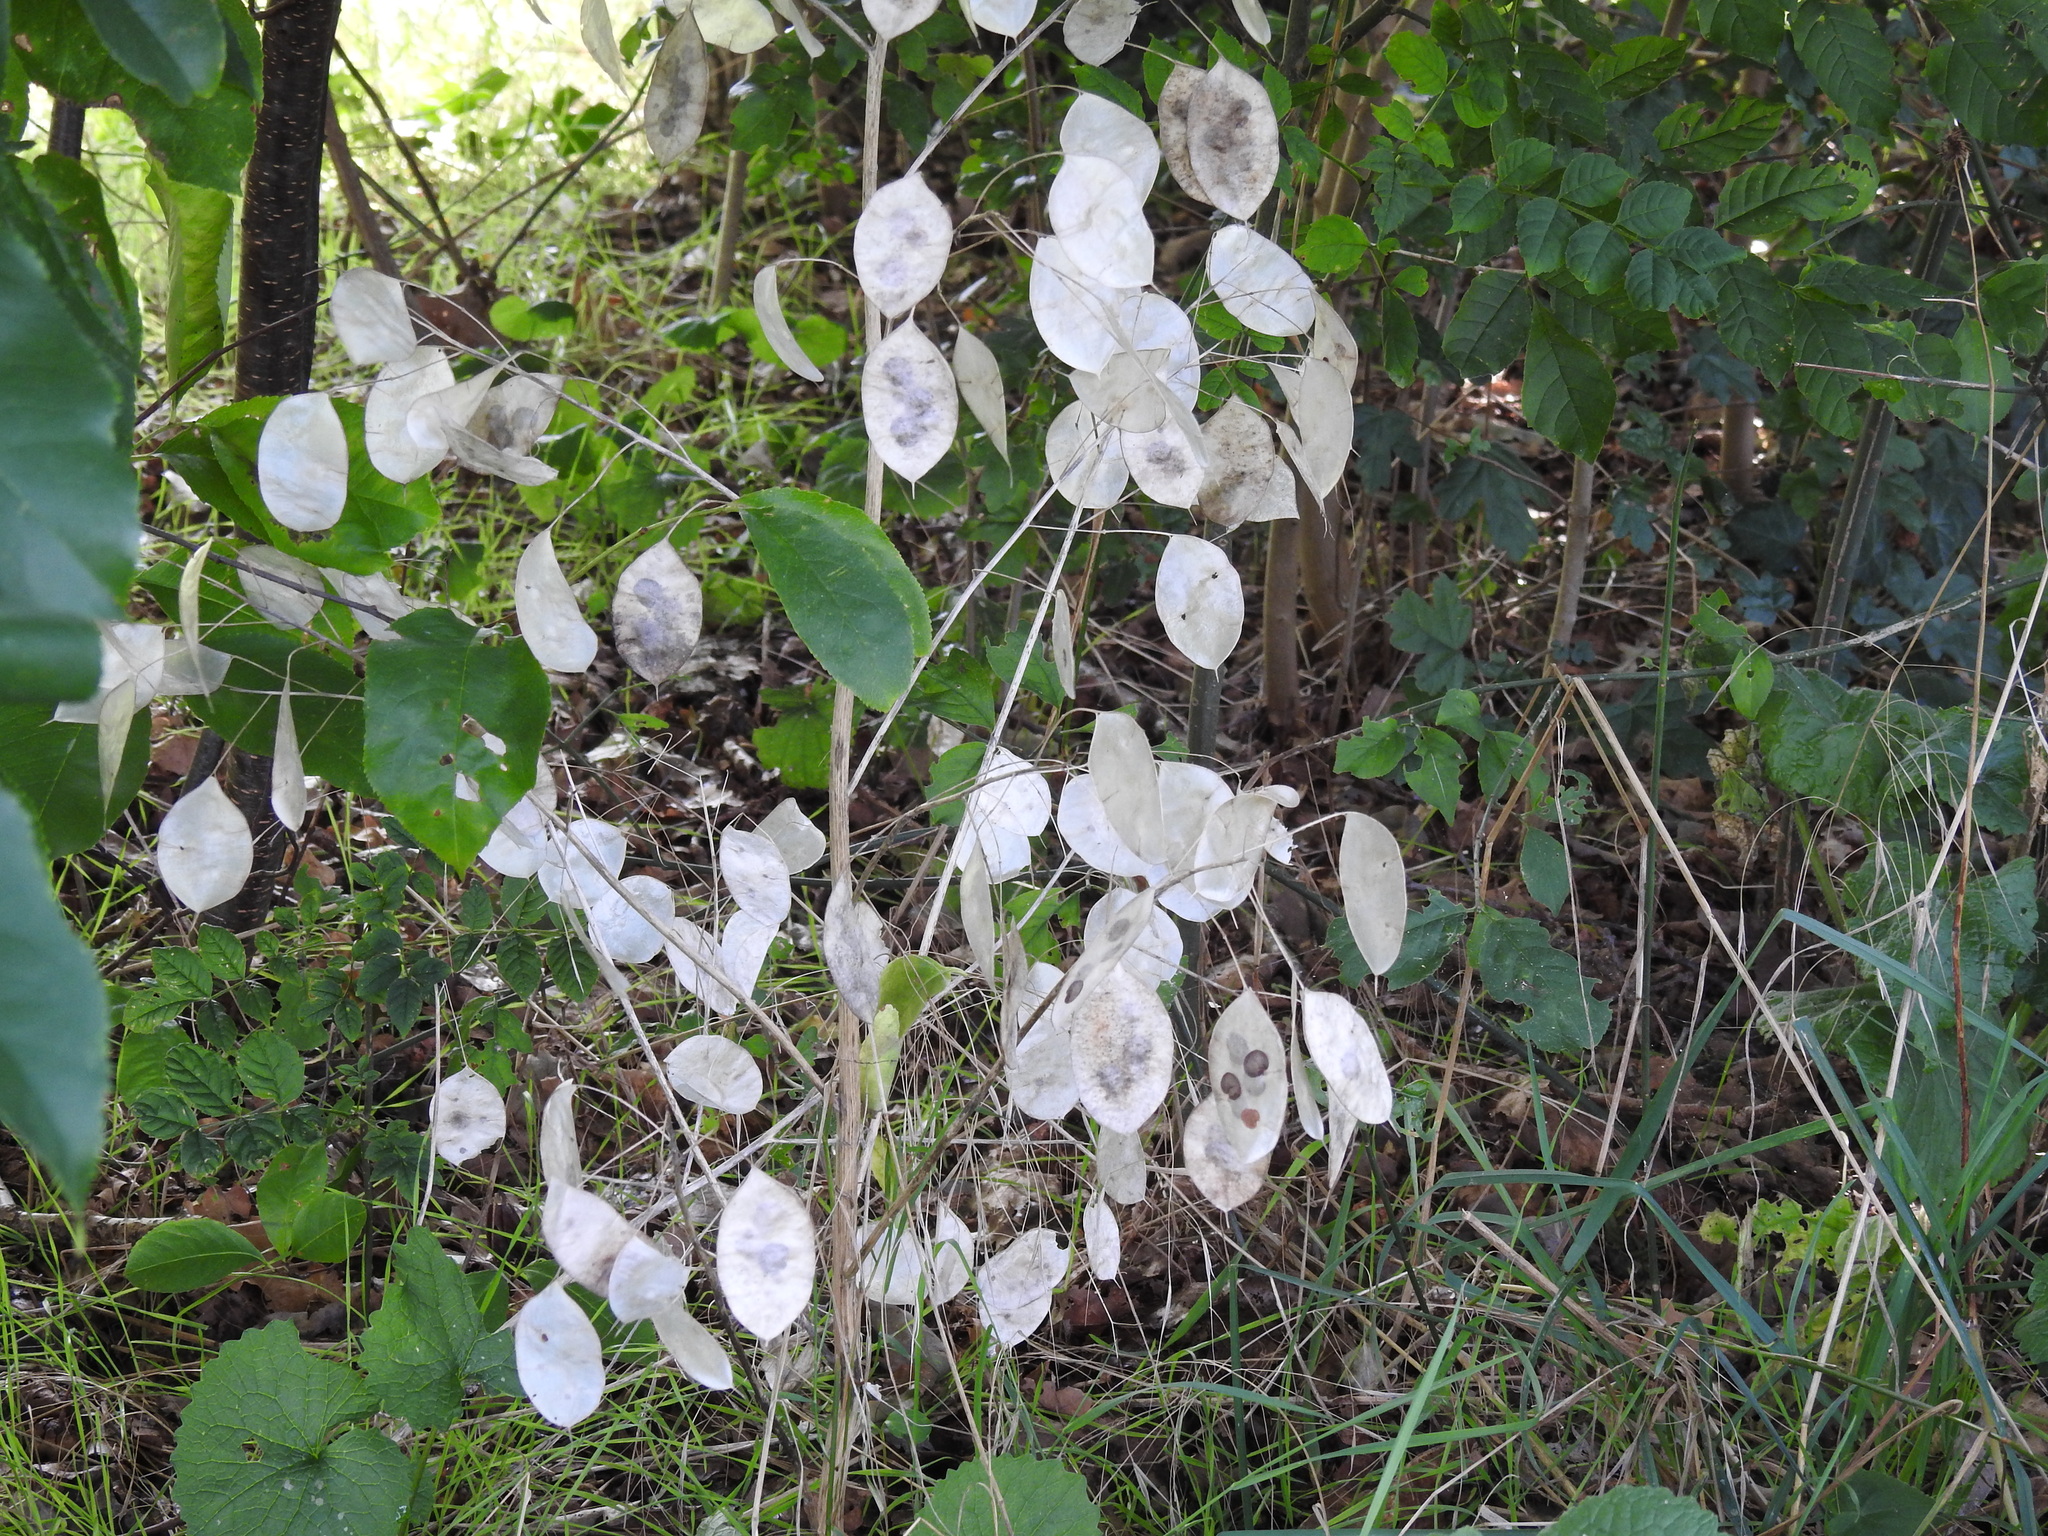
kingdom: Plantae
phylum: Tracheophyta
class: Magnoliopsida
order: Brassicales
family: Brassicaceae
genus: Lunaria
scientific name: Lunaria annua
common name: Honesty
